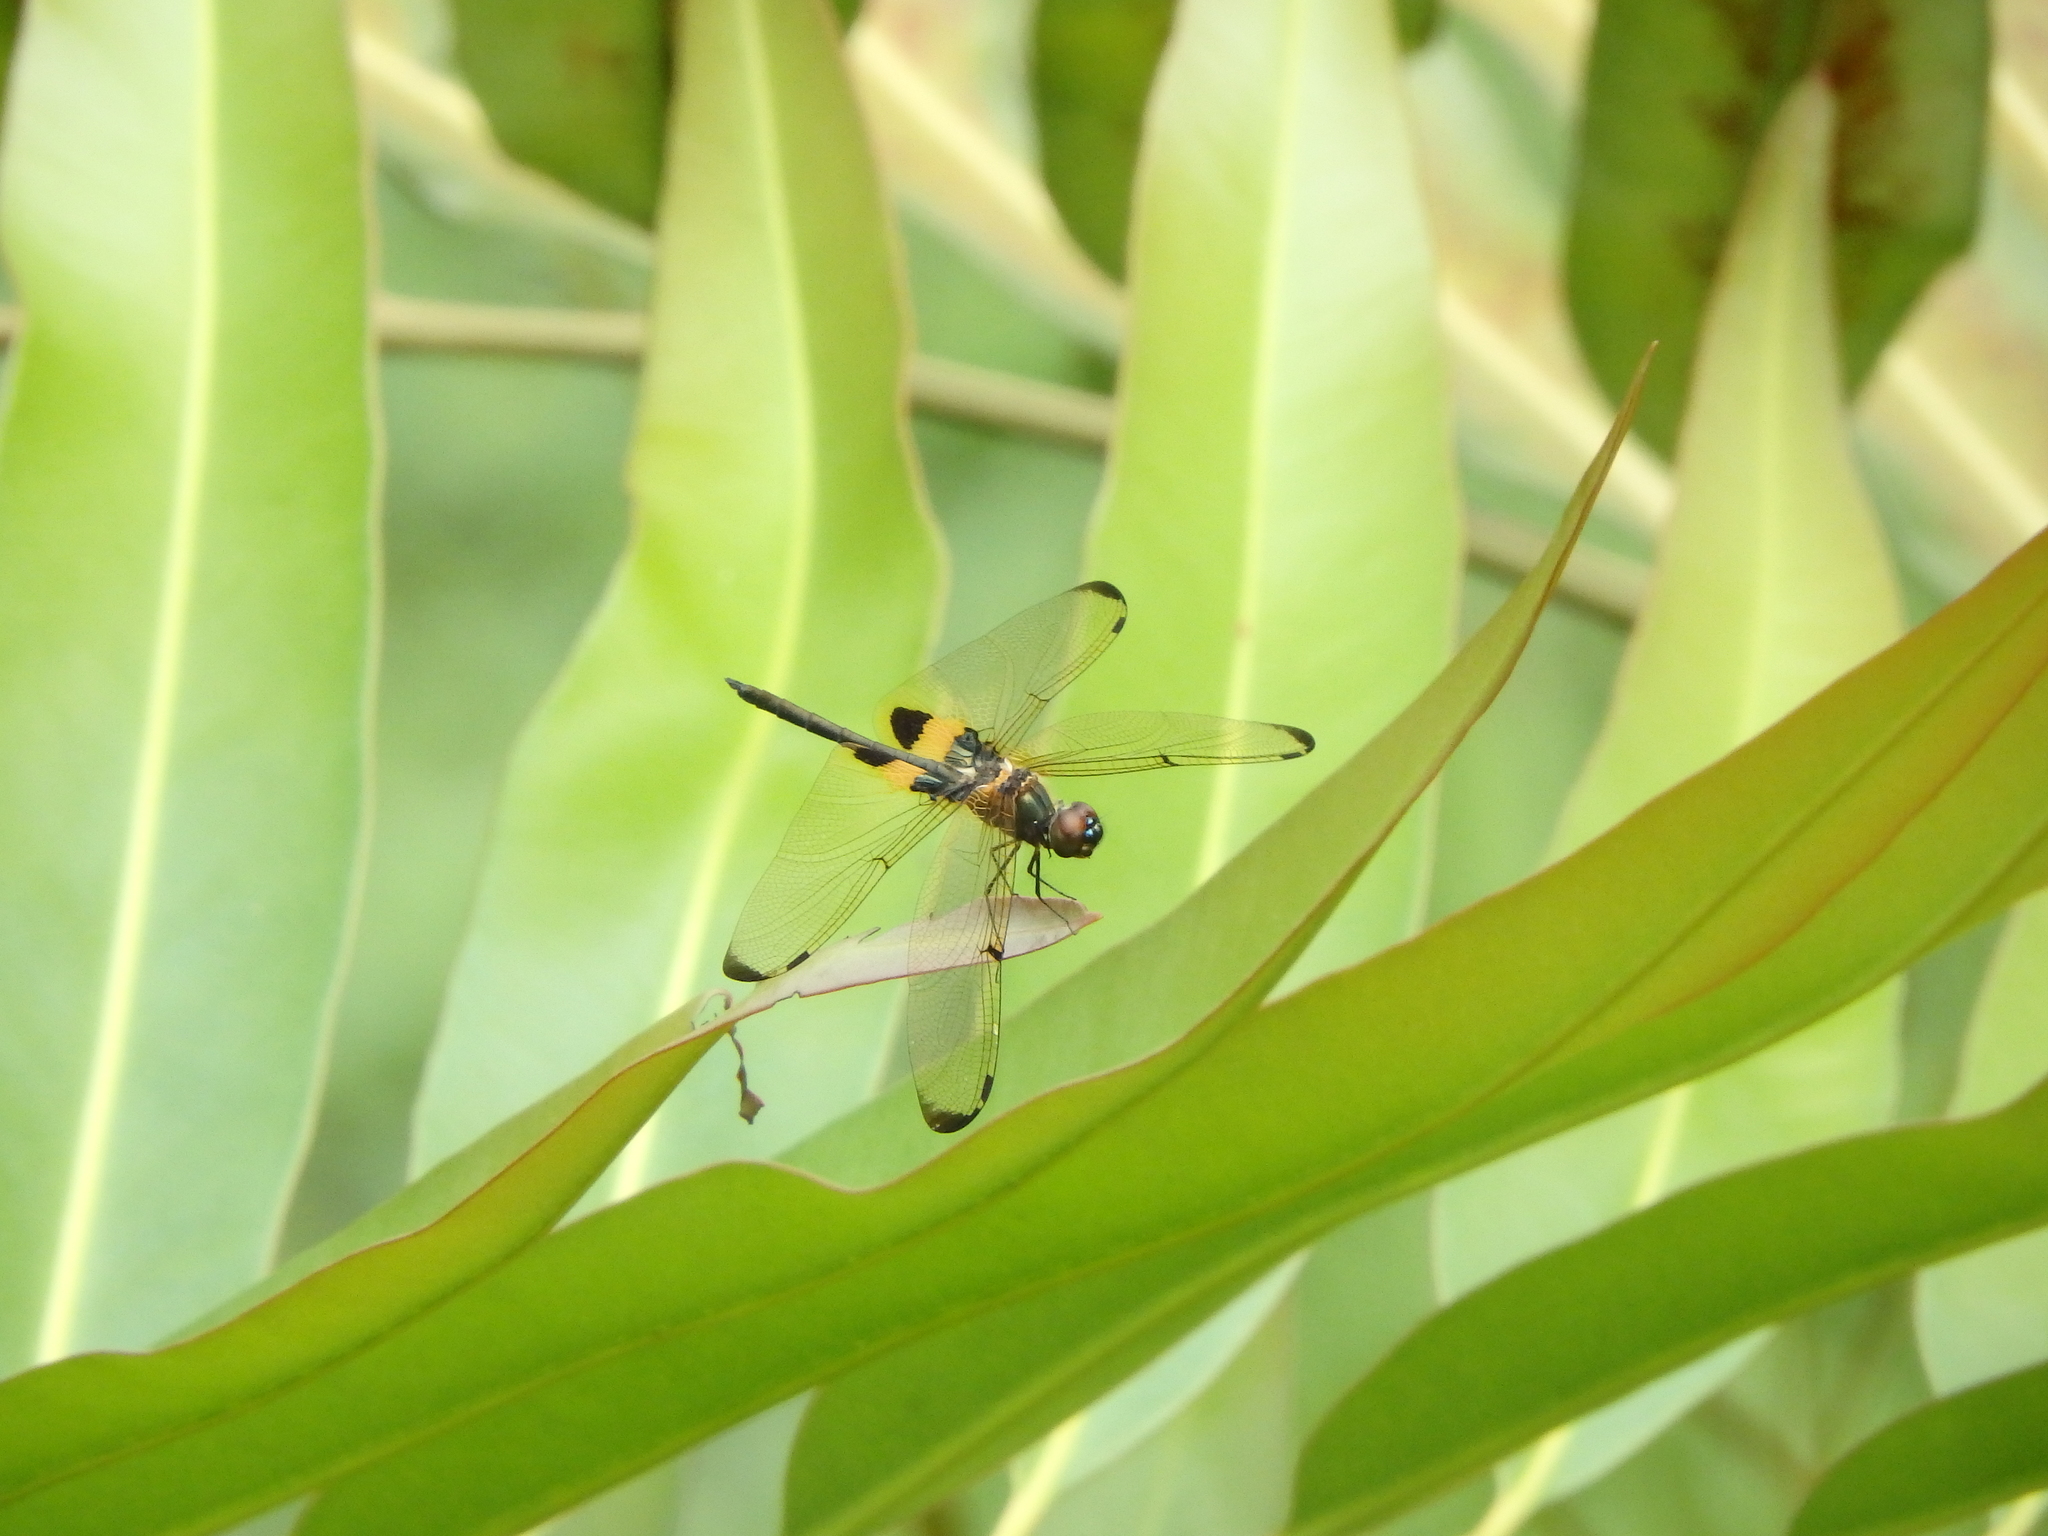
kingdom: Animalia
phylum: Arthropoda
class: Insecta
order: Odonata
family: Libellulidae
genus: Rhyothemis
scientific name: Rhyothemis phyllis
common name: Yellow-barred flutterer
